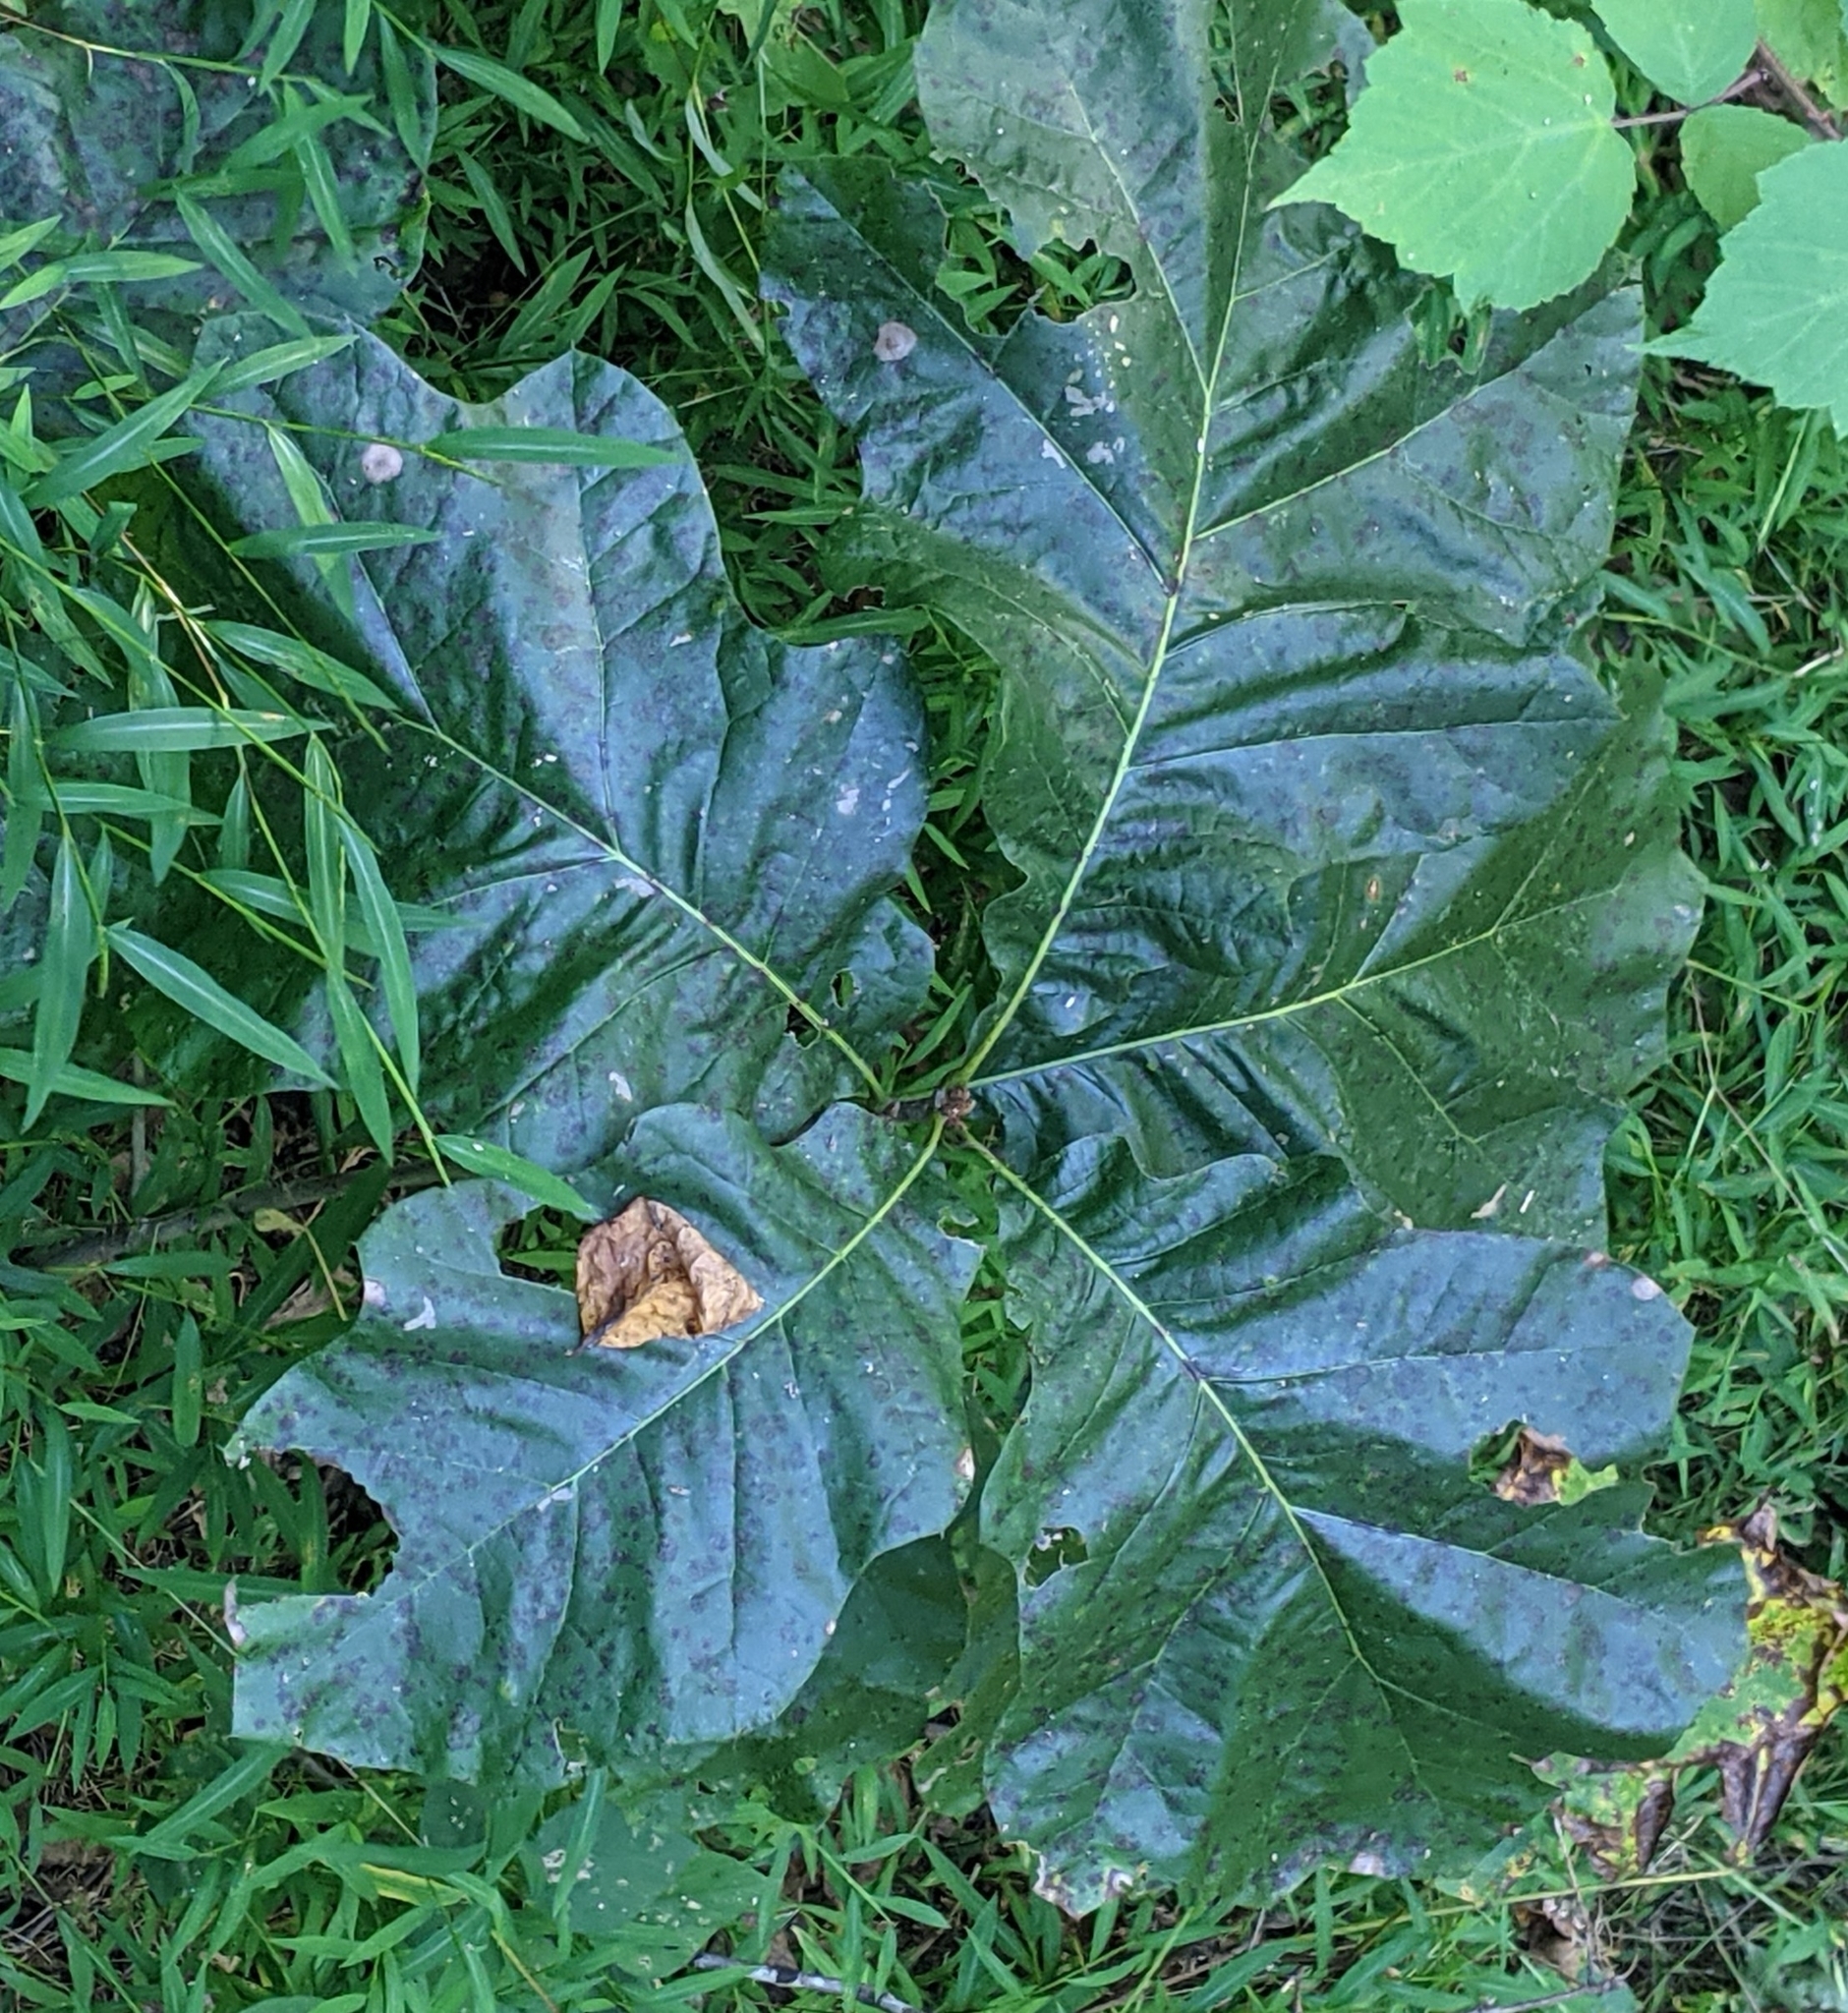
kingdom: Plantae
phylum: Tracheophyta
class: Magnoliopsida
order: Fagales
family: Fagaceae
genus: Quercus
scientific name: Quercus velutina
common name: Black oak
